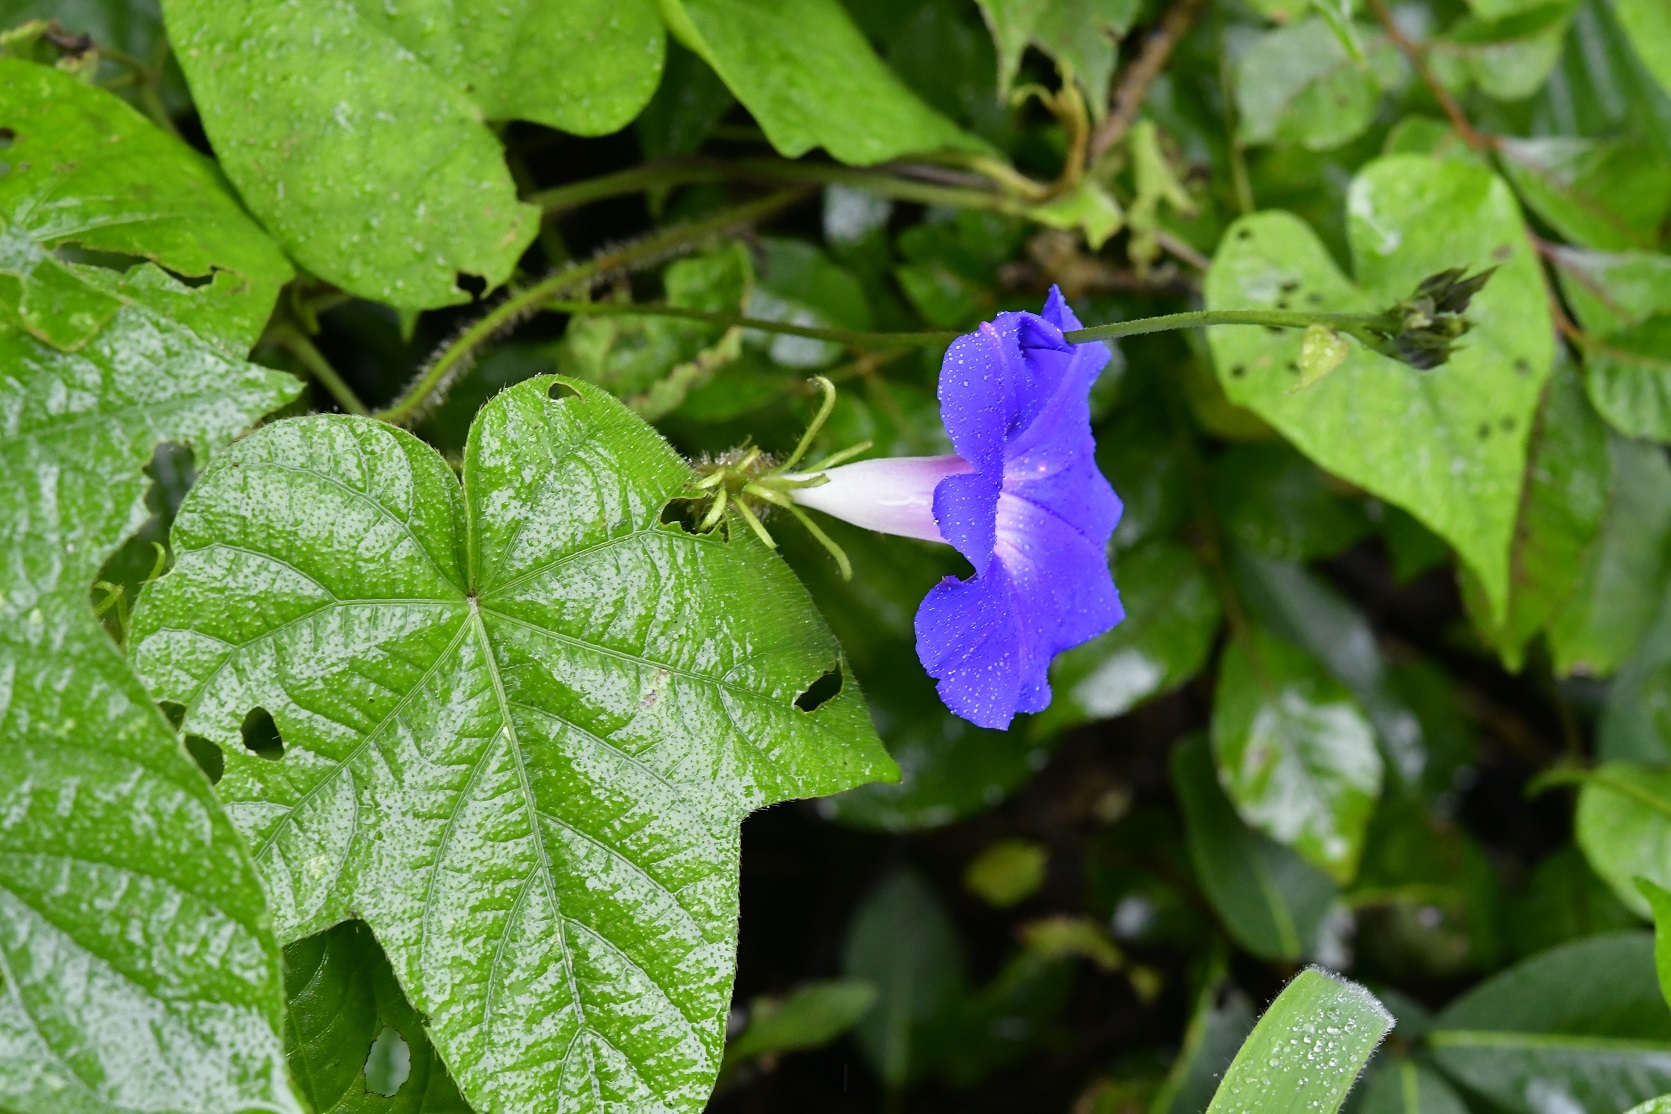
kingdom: Plantae
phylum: Tracheophyta
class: Magnoliopsida
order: Solanales
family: Convolvulaceae
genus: Ipomoea
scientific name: Ipomoea hederacea
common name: Ivy-leaved morning-glory
